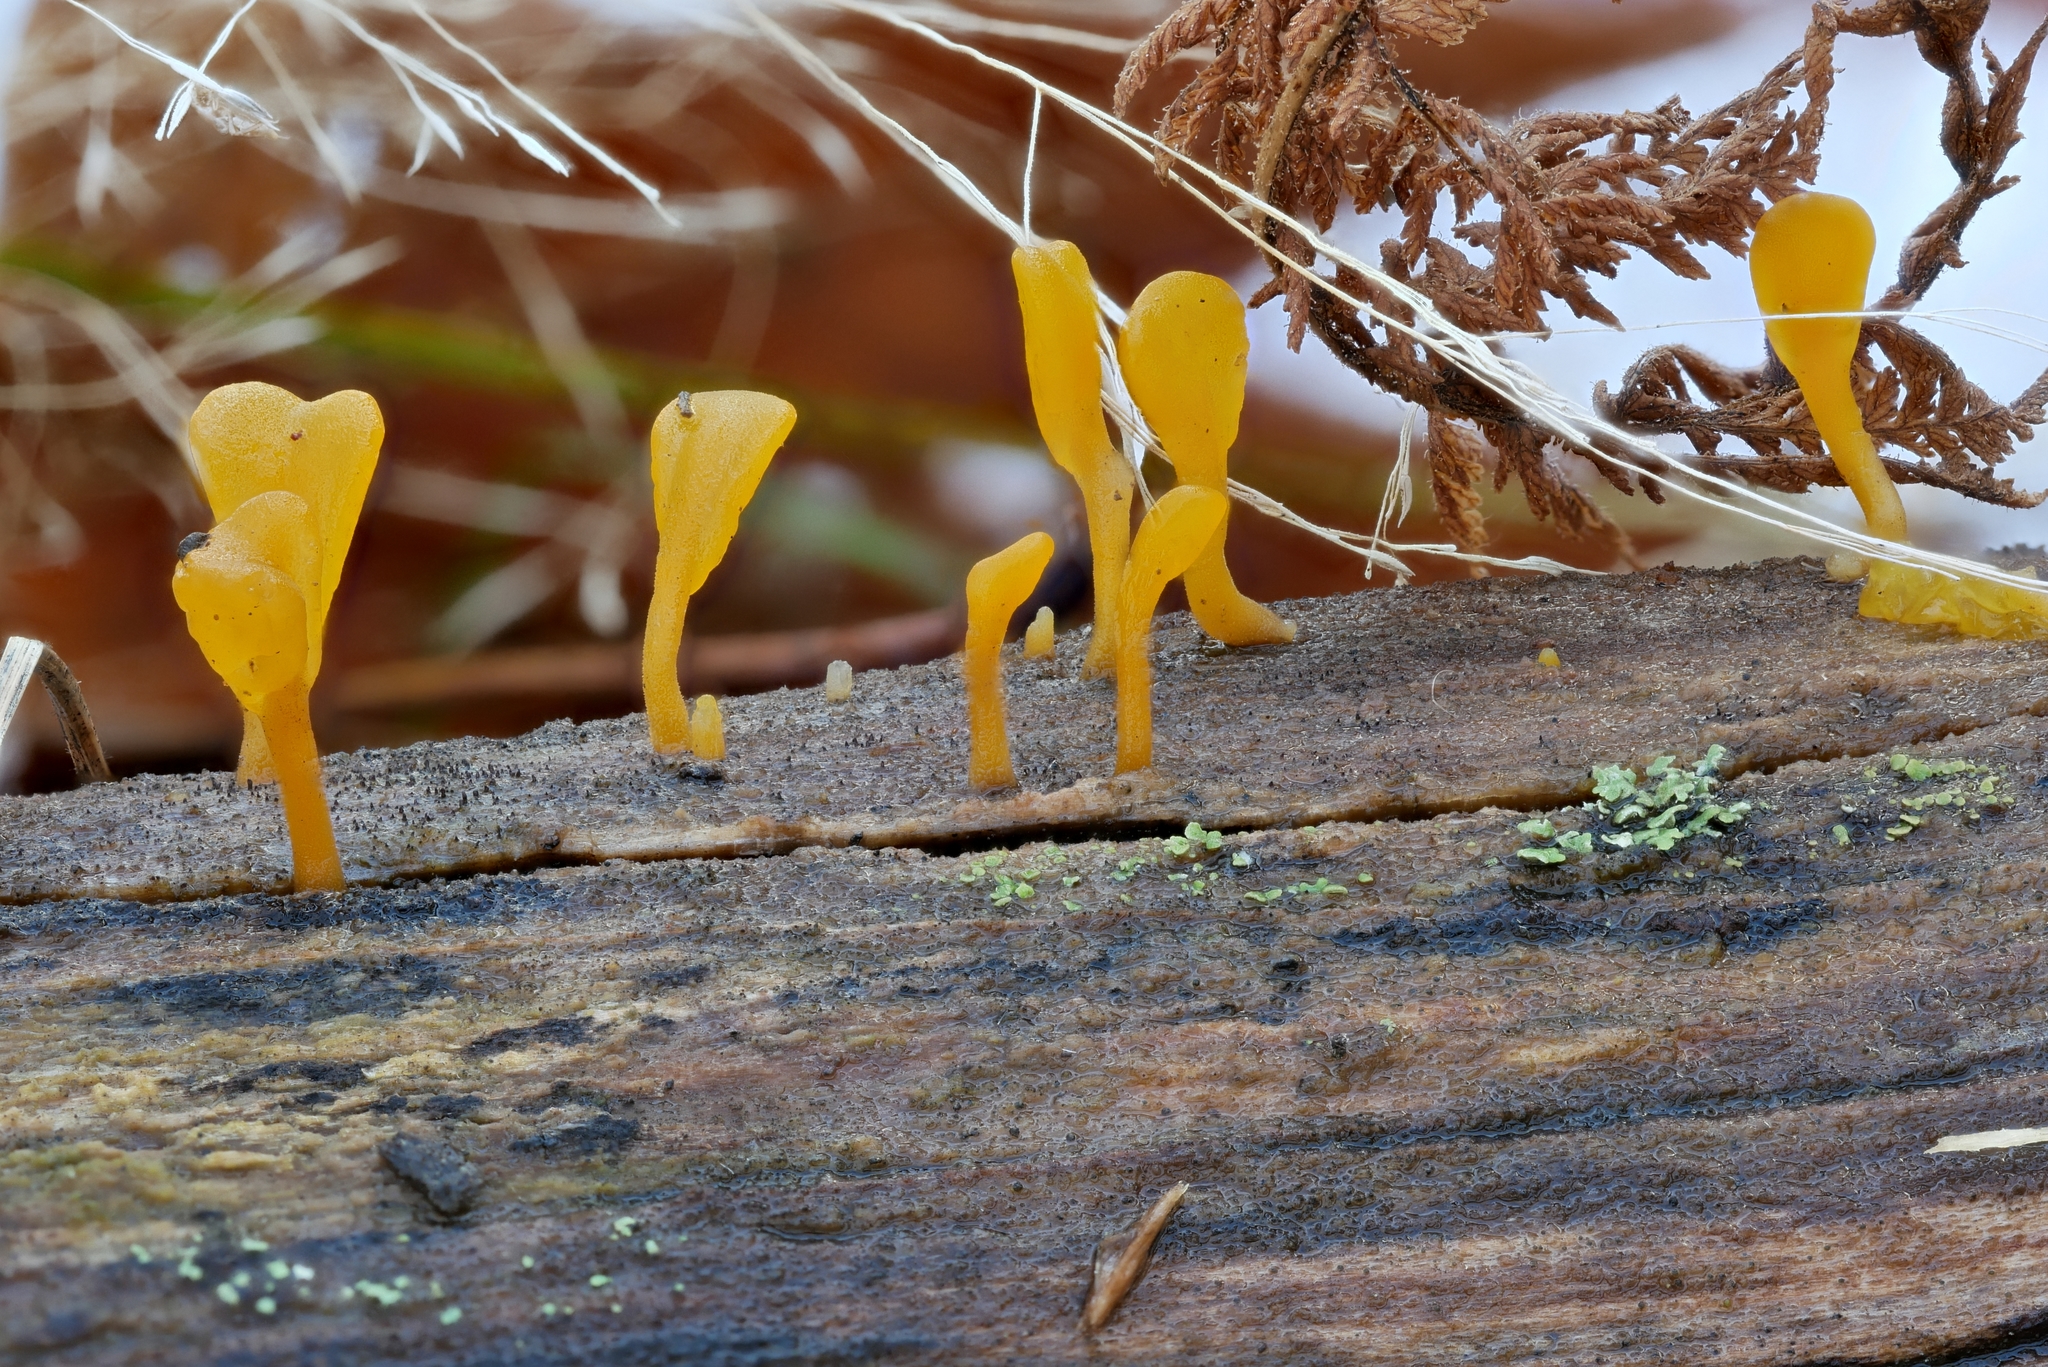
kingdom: Fungi
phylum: Basidiomycota
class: Dacrymycetes
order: Dacrymycetales
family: Dacrymycetaceae
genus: Dacrymyces
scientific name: Dacrymyces spathularius
